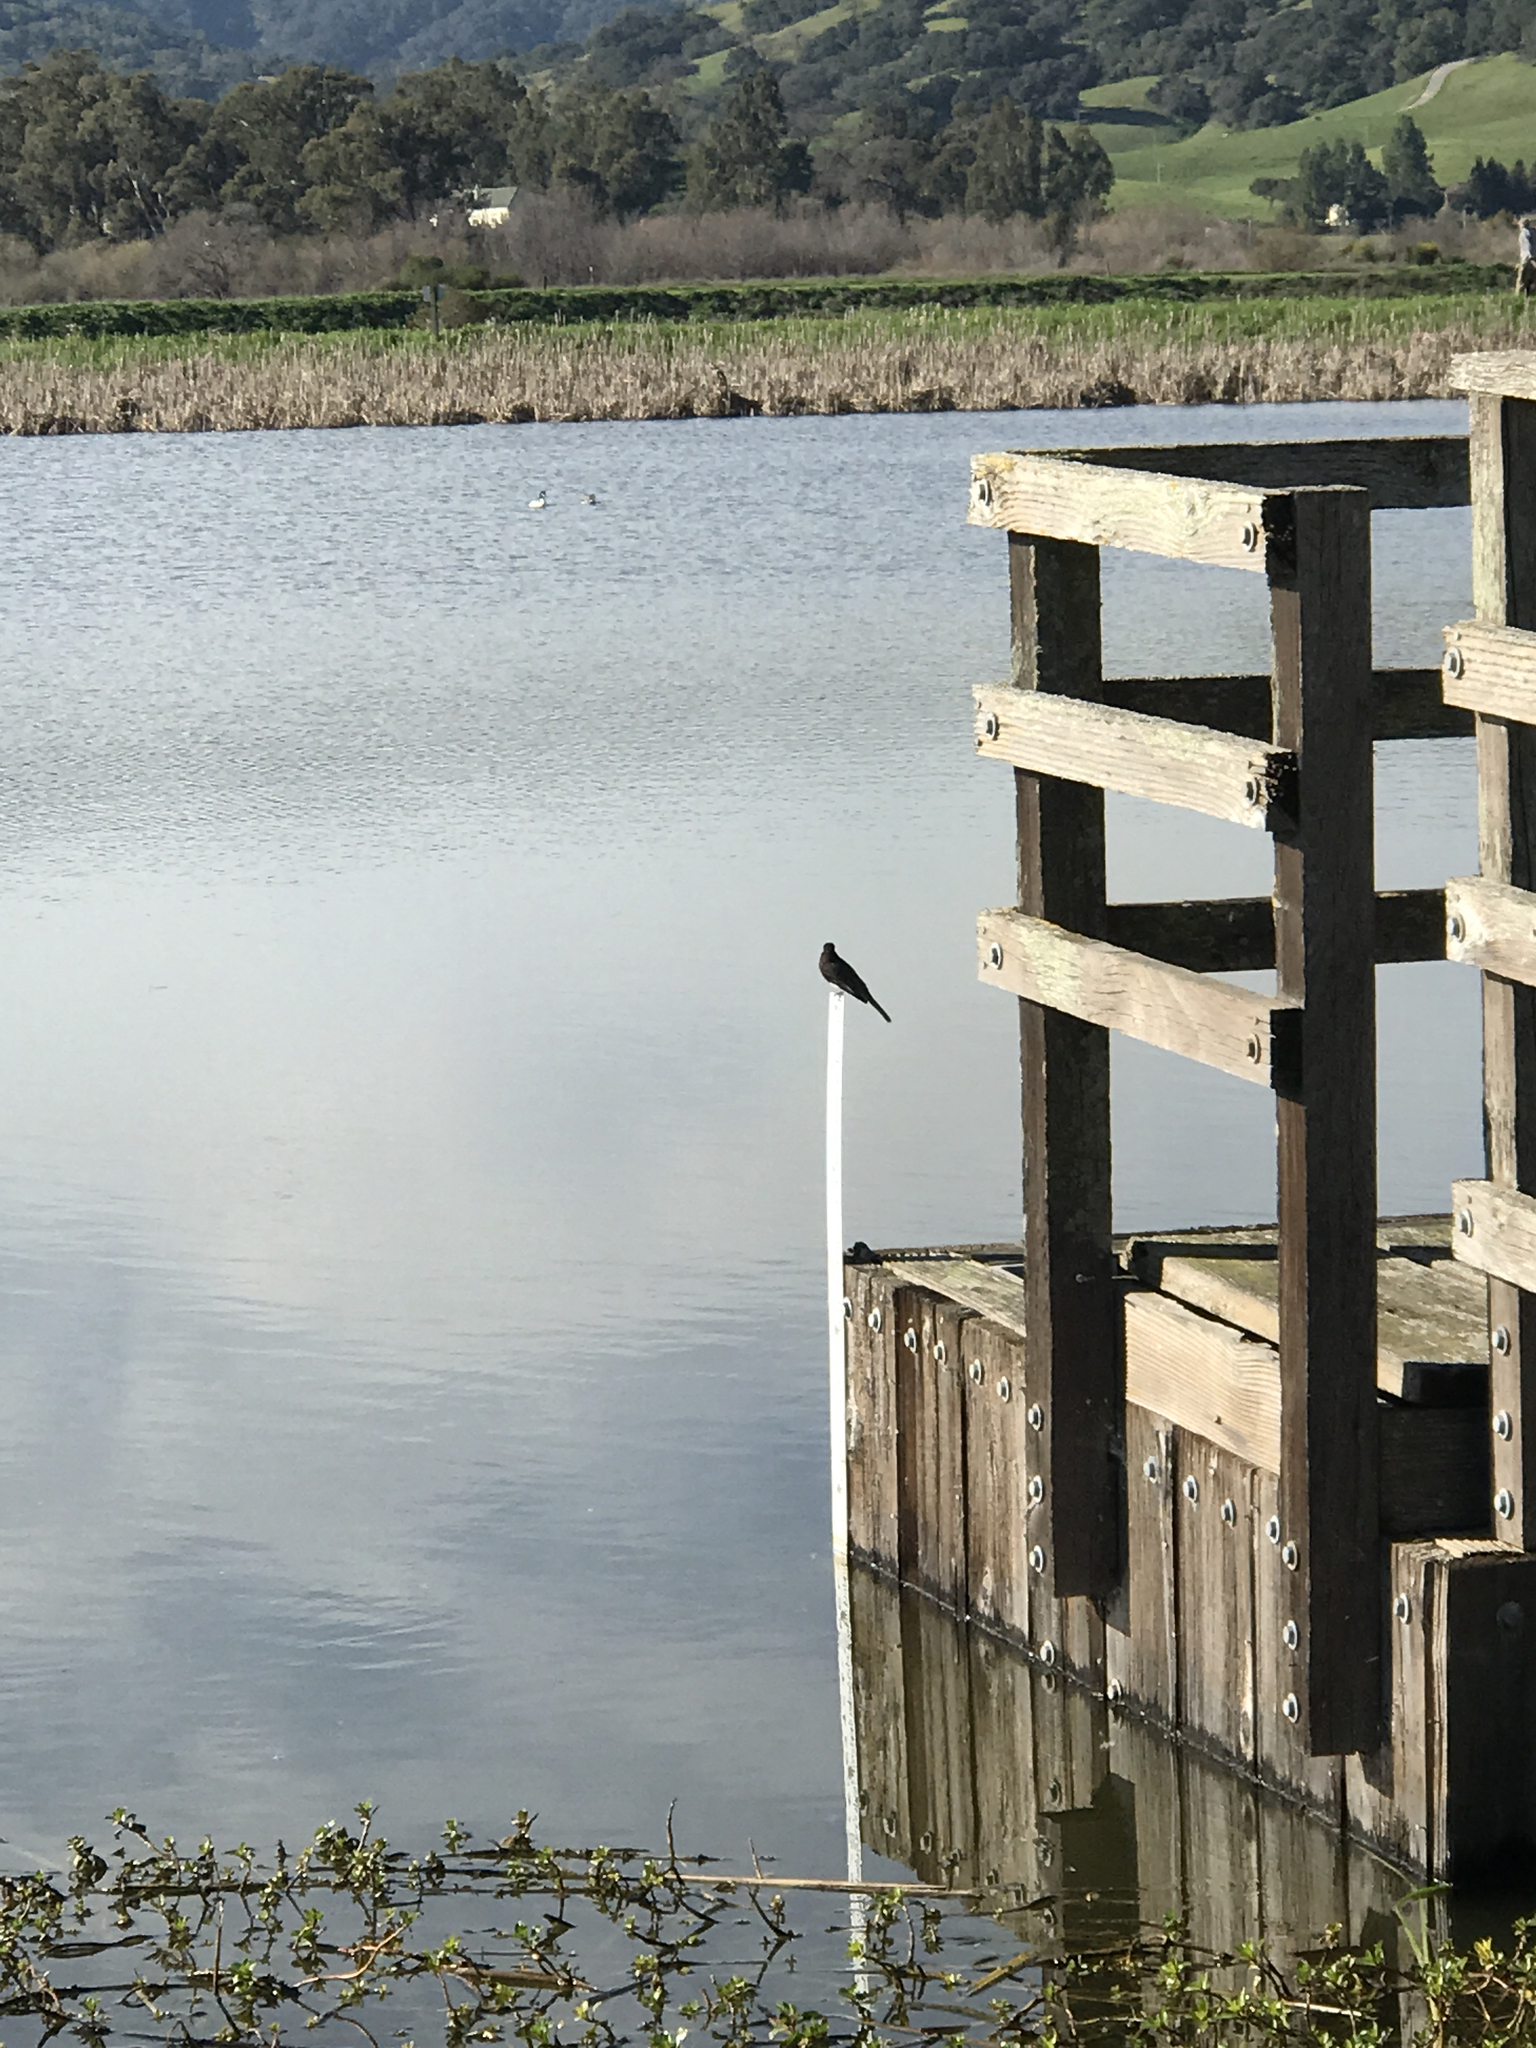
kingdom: Animalia
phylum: Chordata
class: Aves
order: Passeriformes
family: Tyrannidae
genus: Sayornis
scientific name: Sayornis nigricans
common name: Black phoebe
